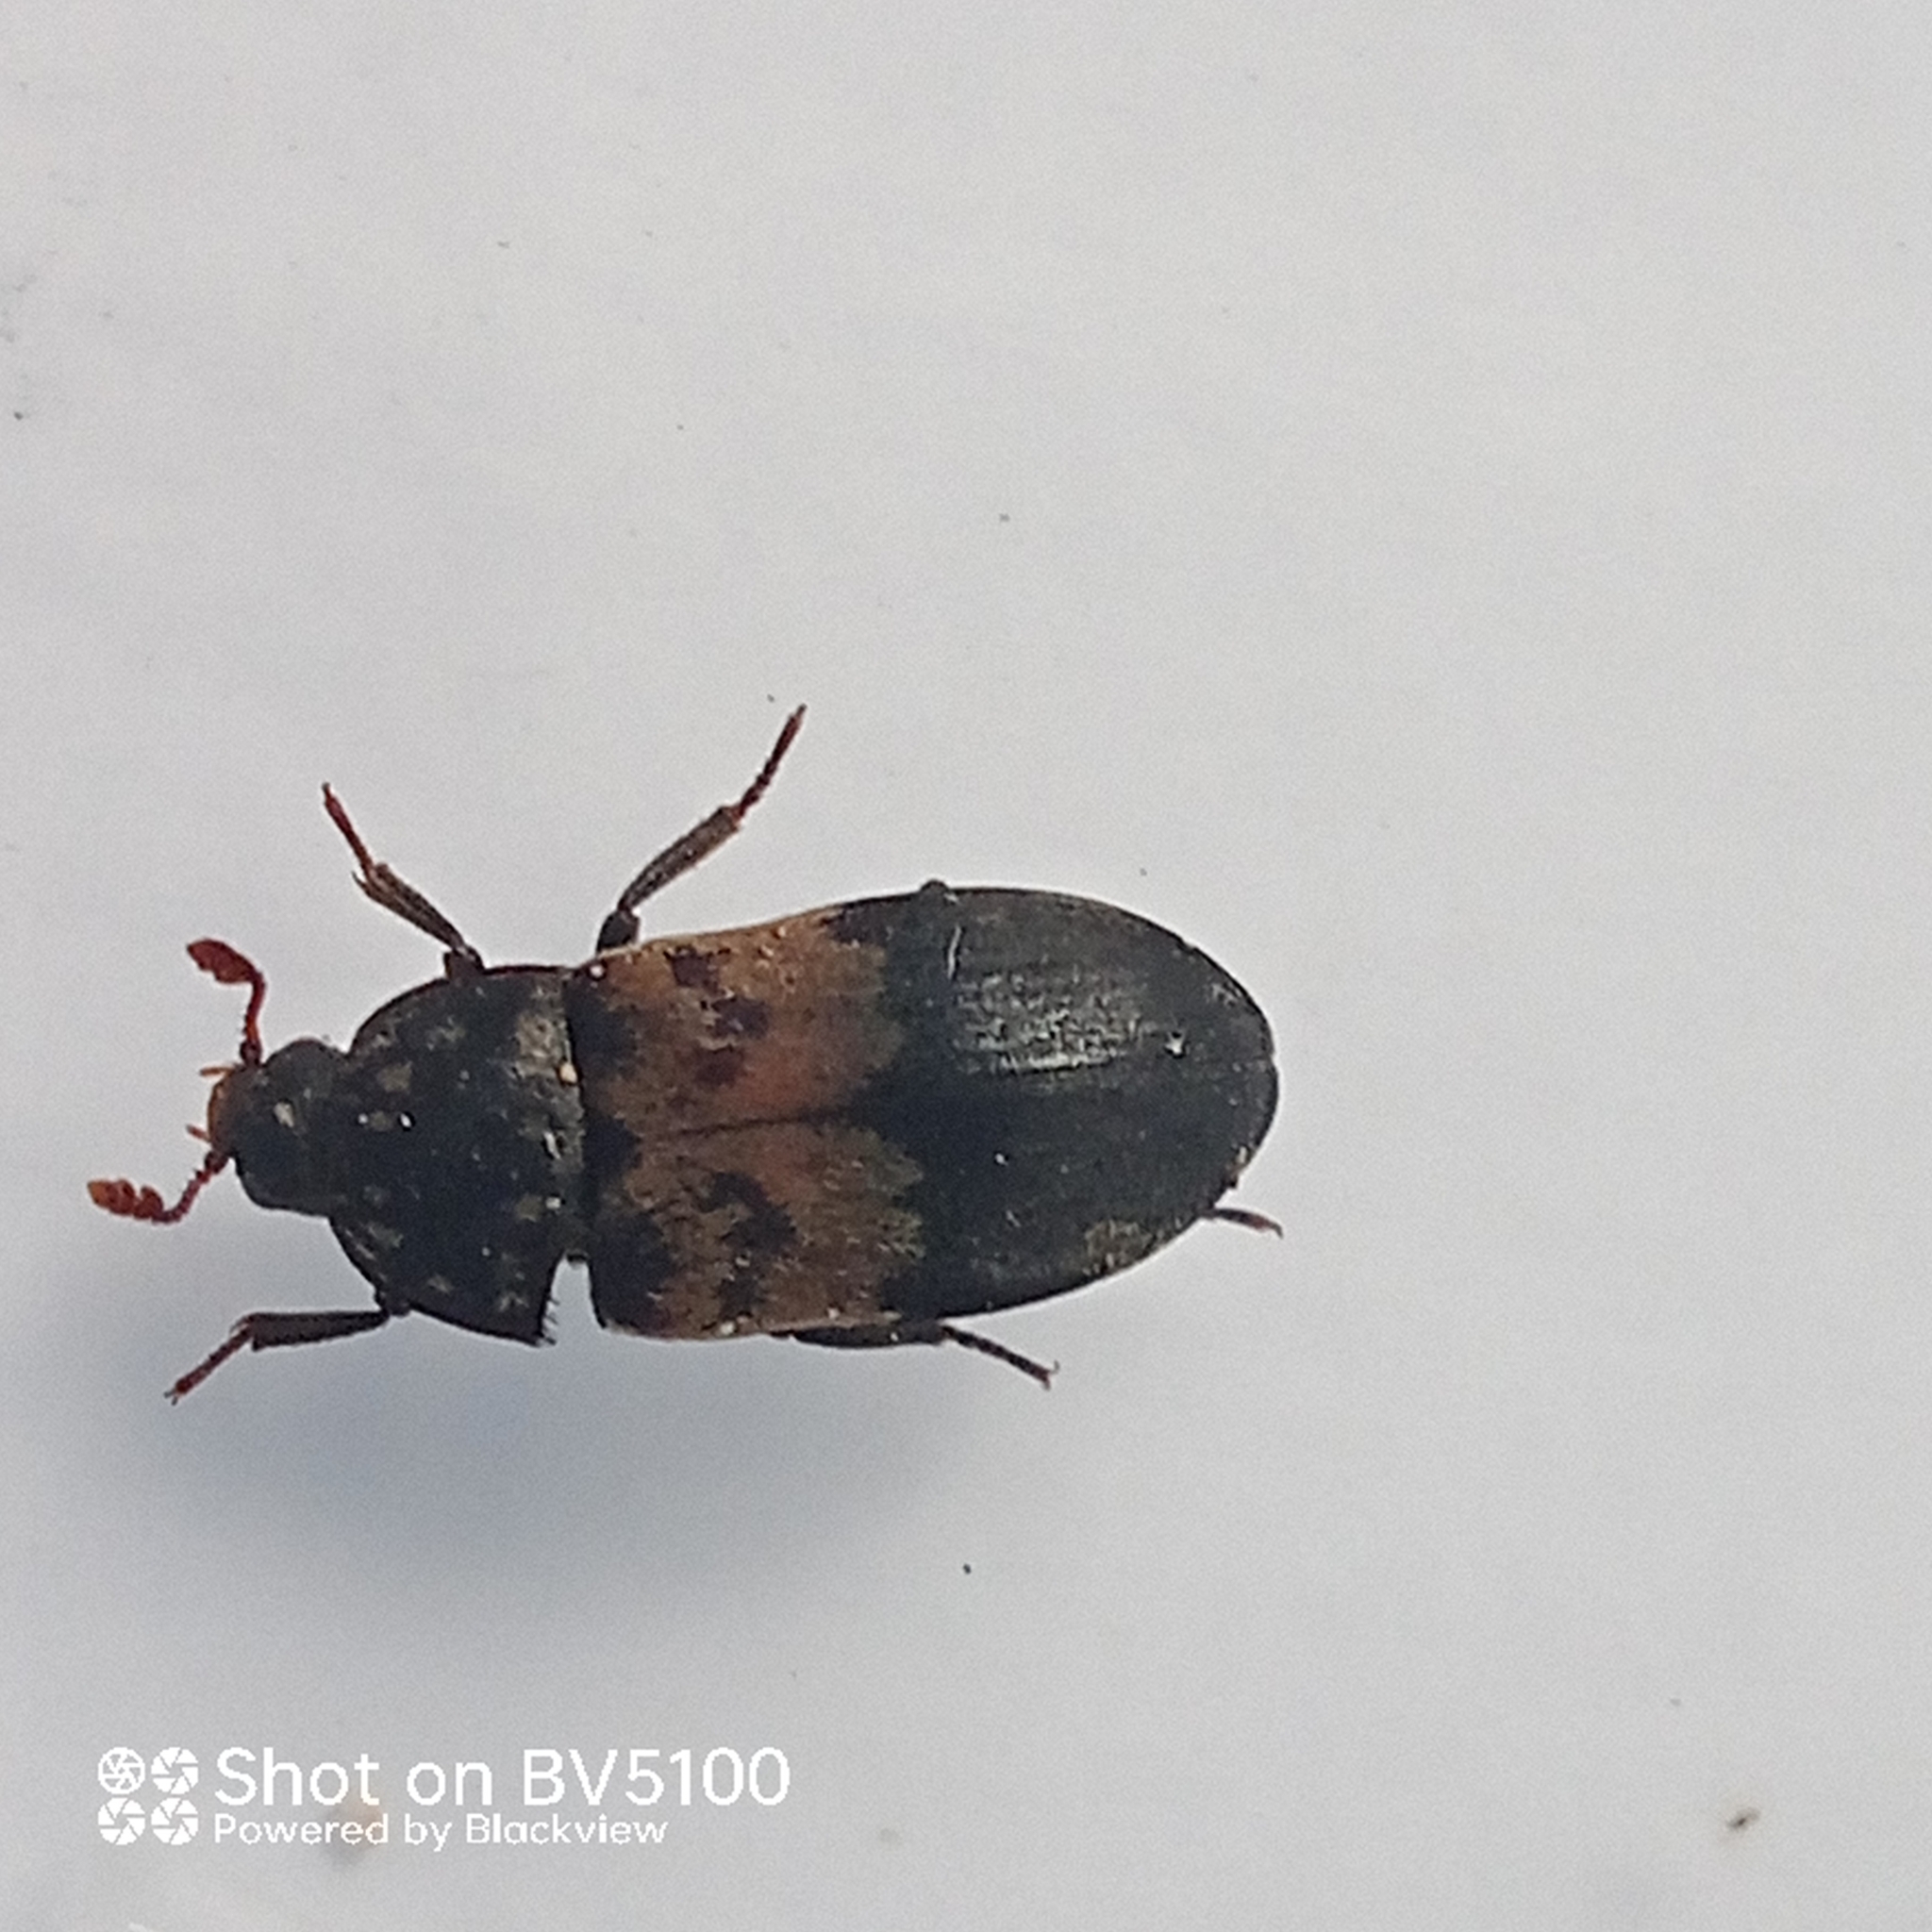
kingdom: Animalia
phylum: Arthropoda
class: Insecta
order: Coleoptera
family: Dermestidae
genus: Dermestes
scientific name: Dermestes lardarius
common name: Larder beetle
